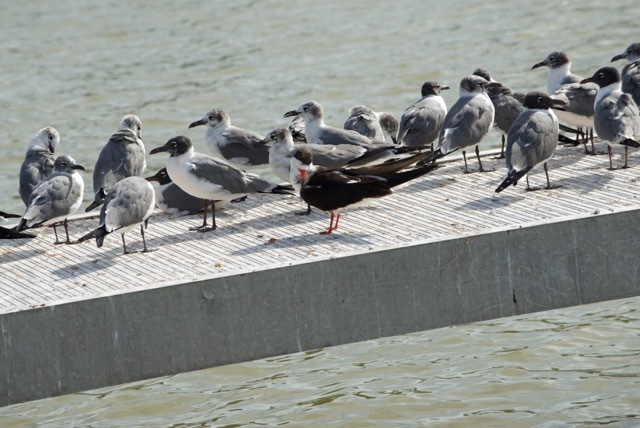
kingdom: Animalia
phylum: Chordata
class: Aves
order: Charadriiformes
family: Laridae
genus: Rynchops
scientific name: Rynchops niger
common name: Black skimmer
